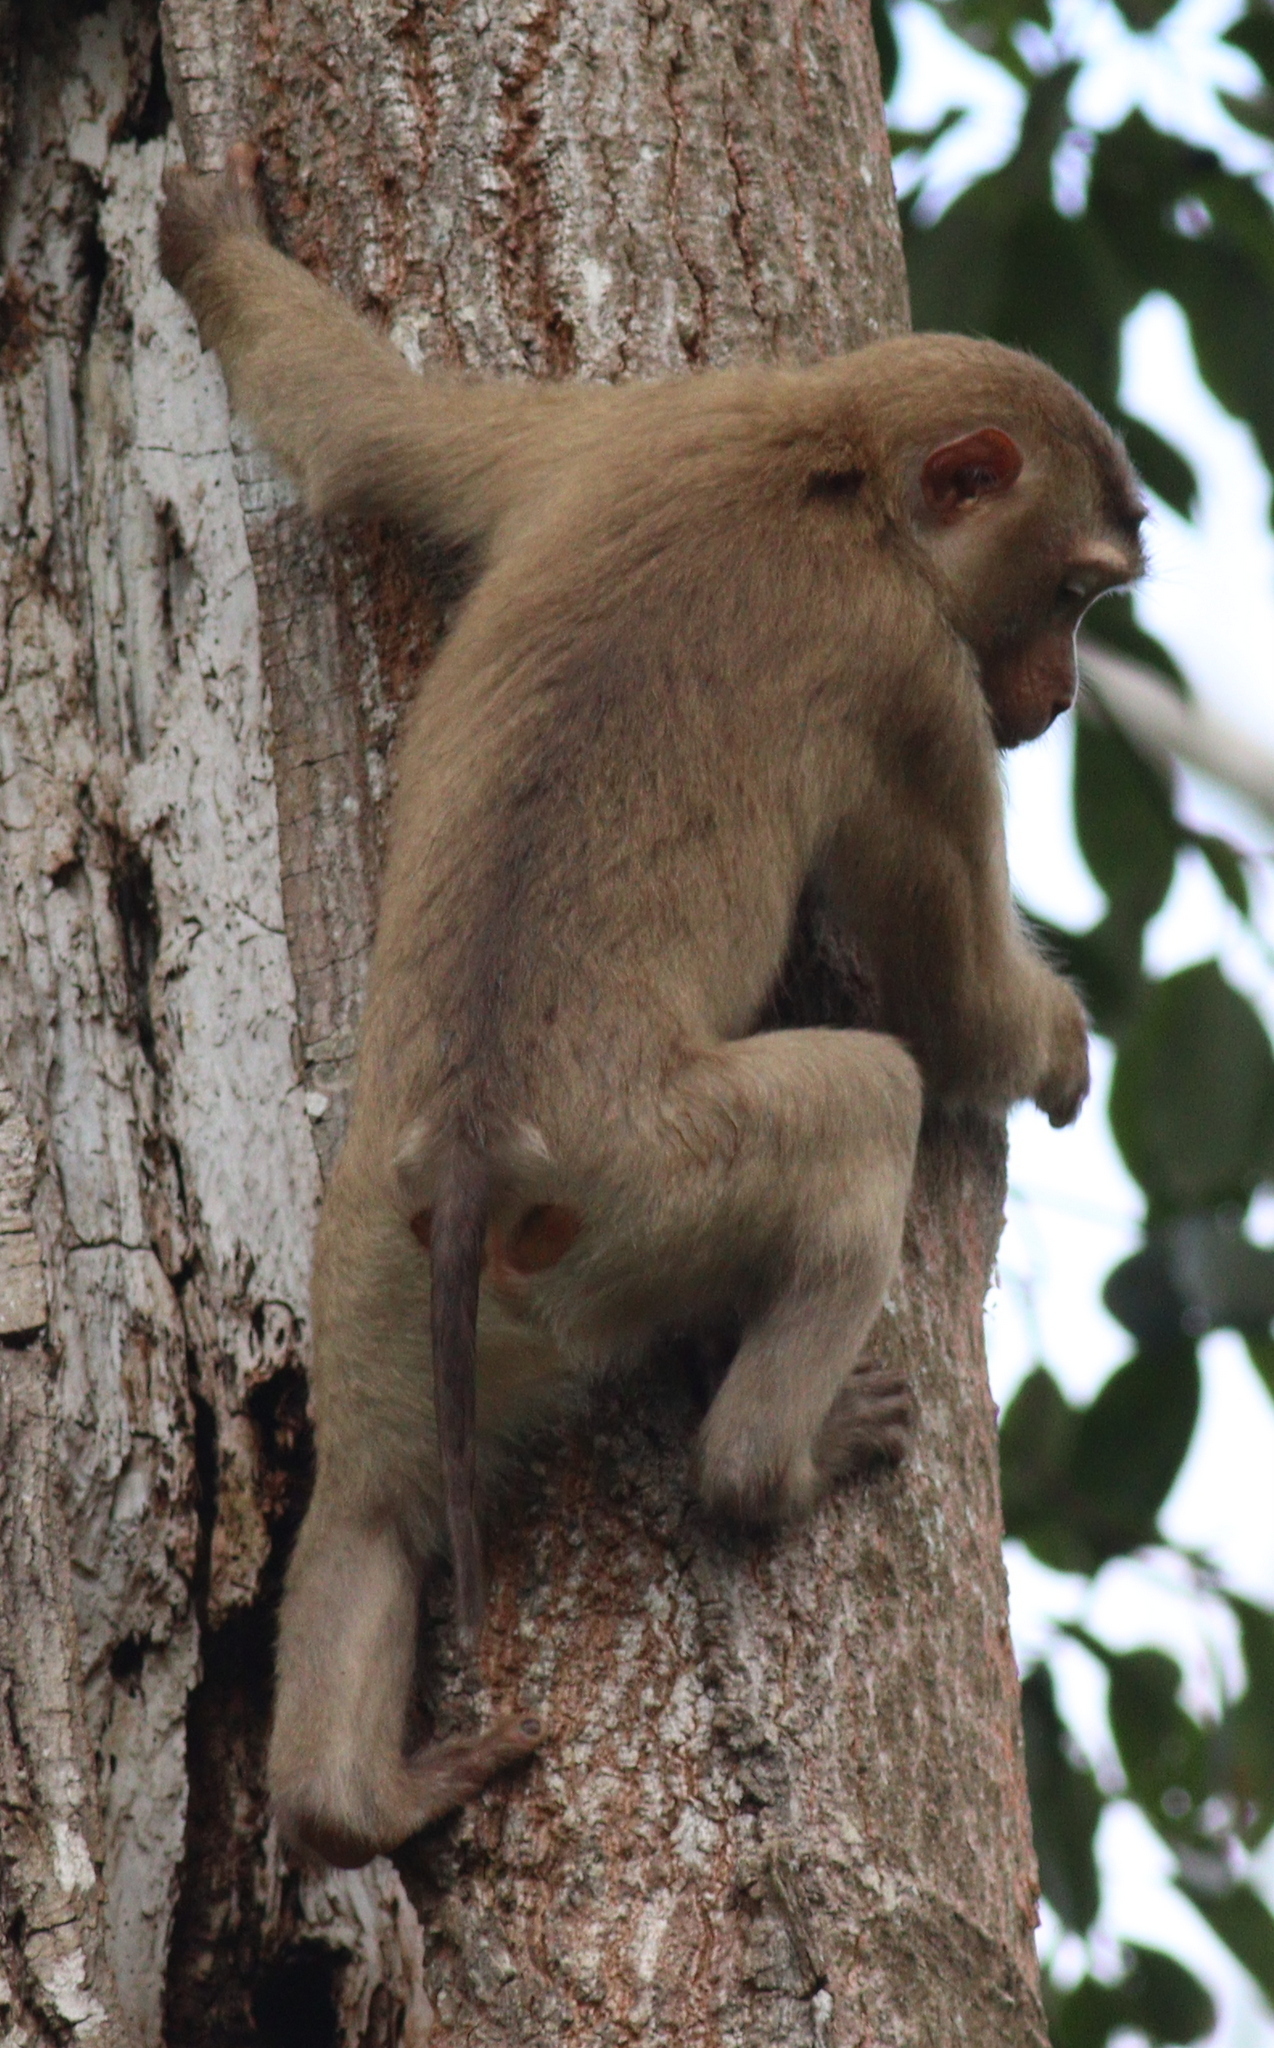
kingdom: Animalia
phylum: Chordata
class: Mammalia
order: Primates
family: Cercopithecidae
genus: Macaca
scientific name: Macaca leonina
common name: Northern pig-tailed macaque
